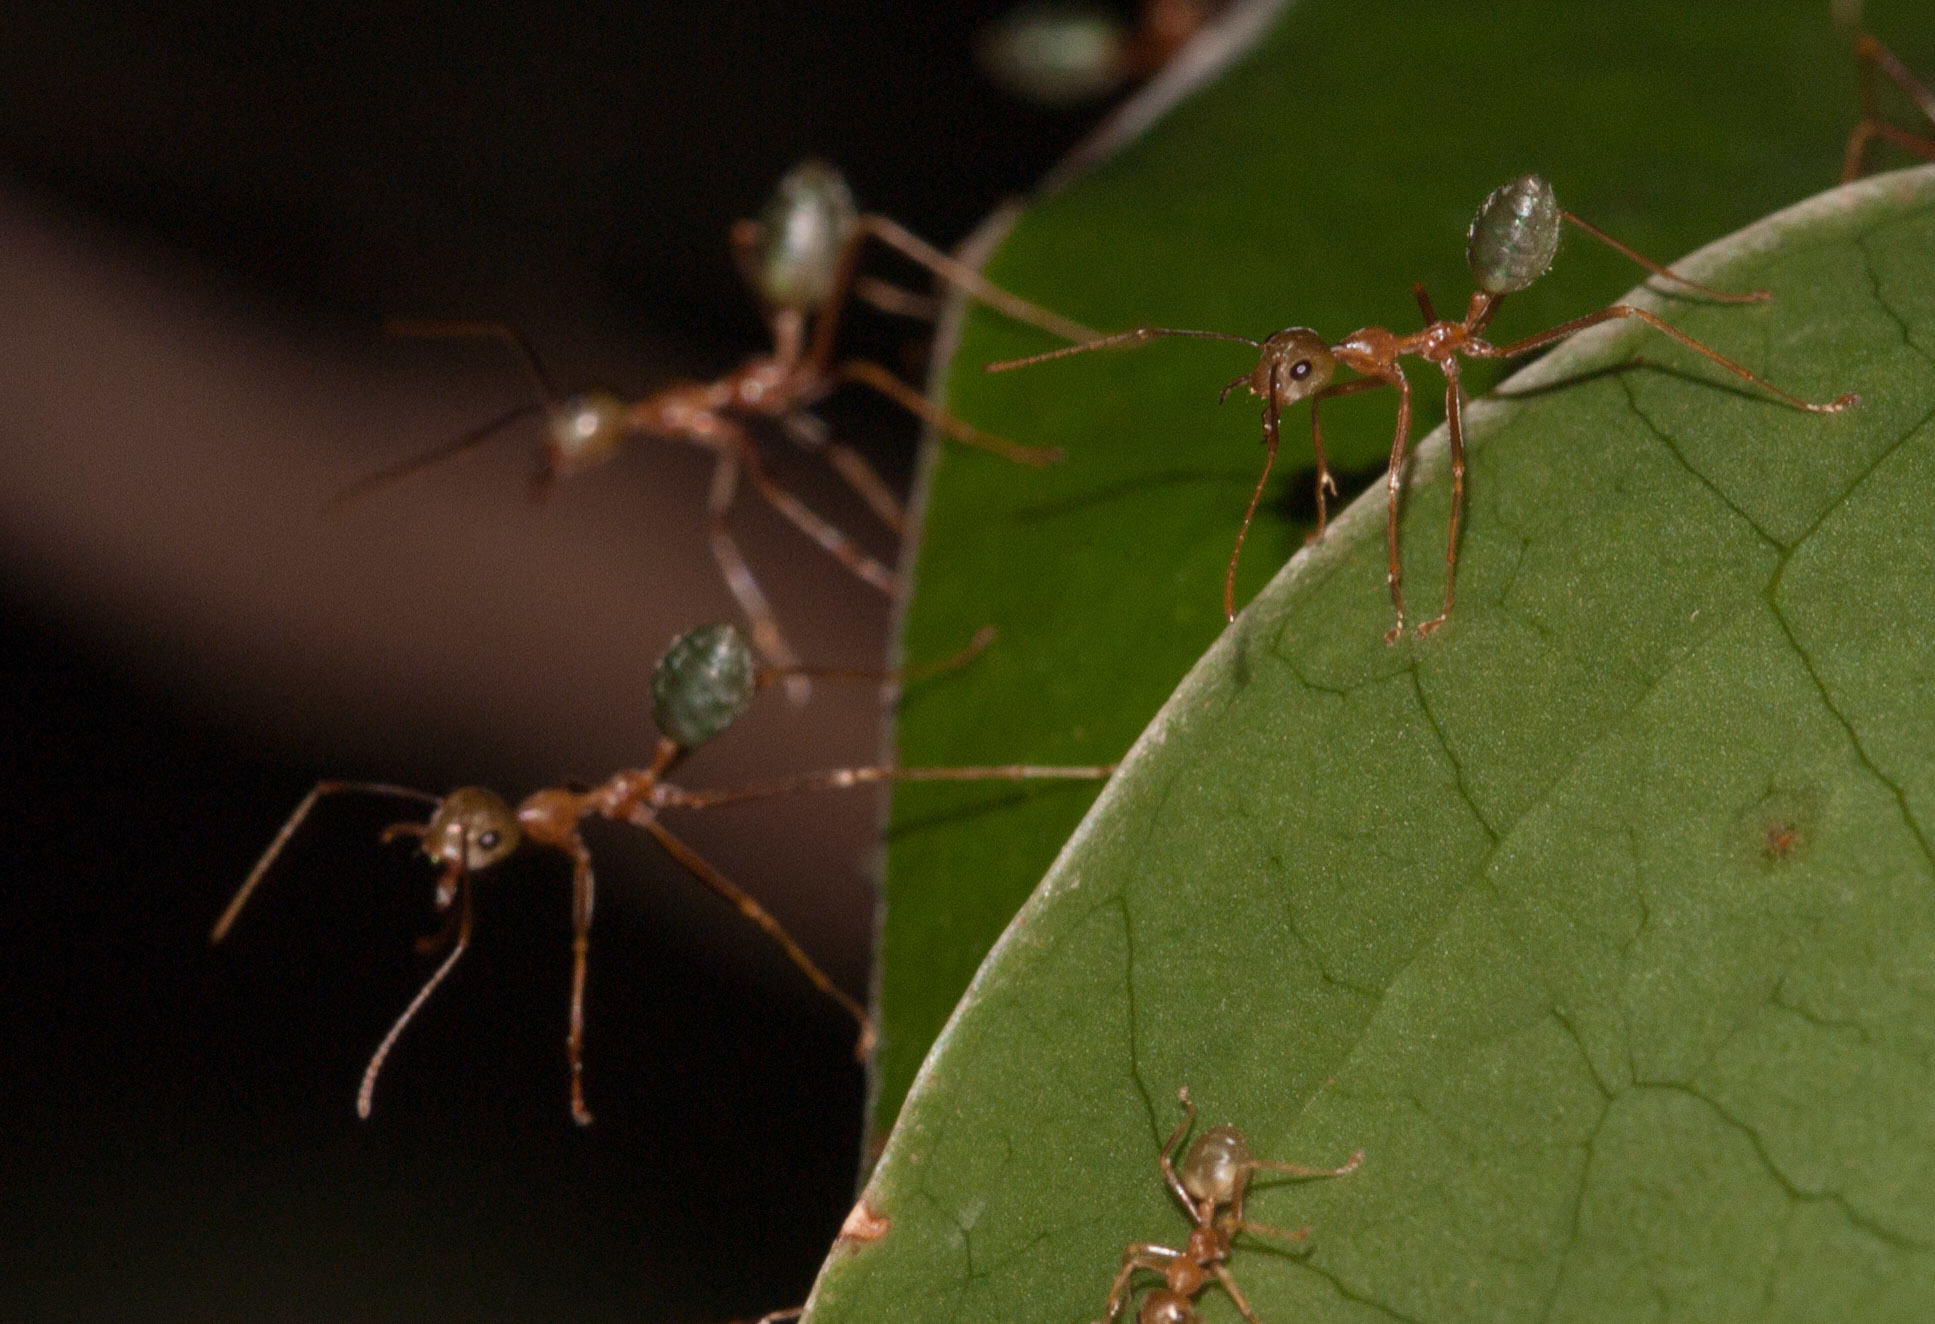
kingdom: Animalia
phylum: Arthropoda
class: Insecta
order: Hymenoptera
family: Formicidae
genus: Oecophylla
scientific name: Oecophylla smaragdina
